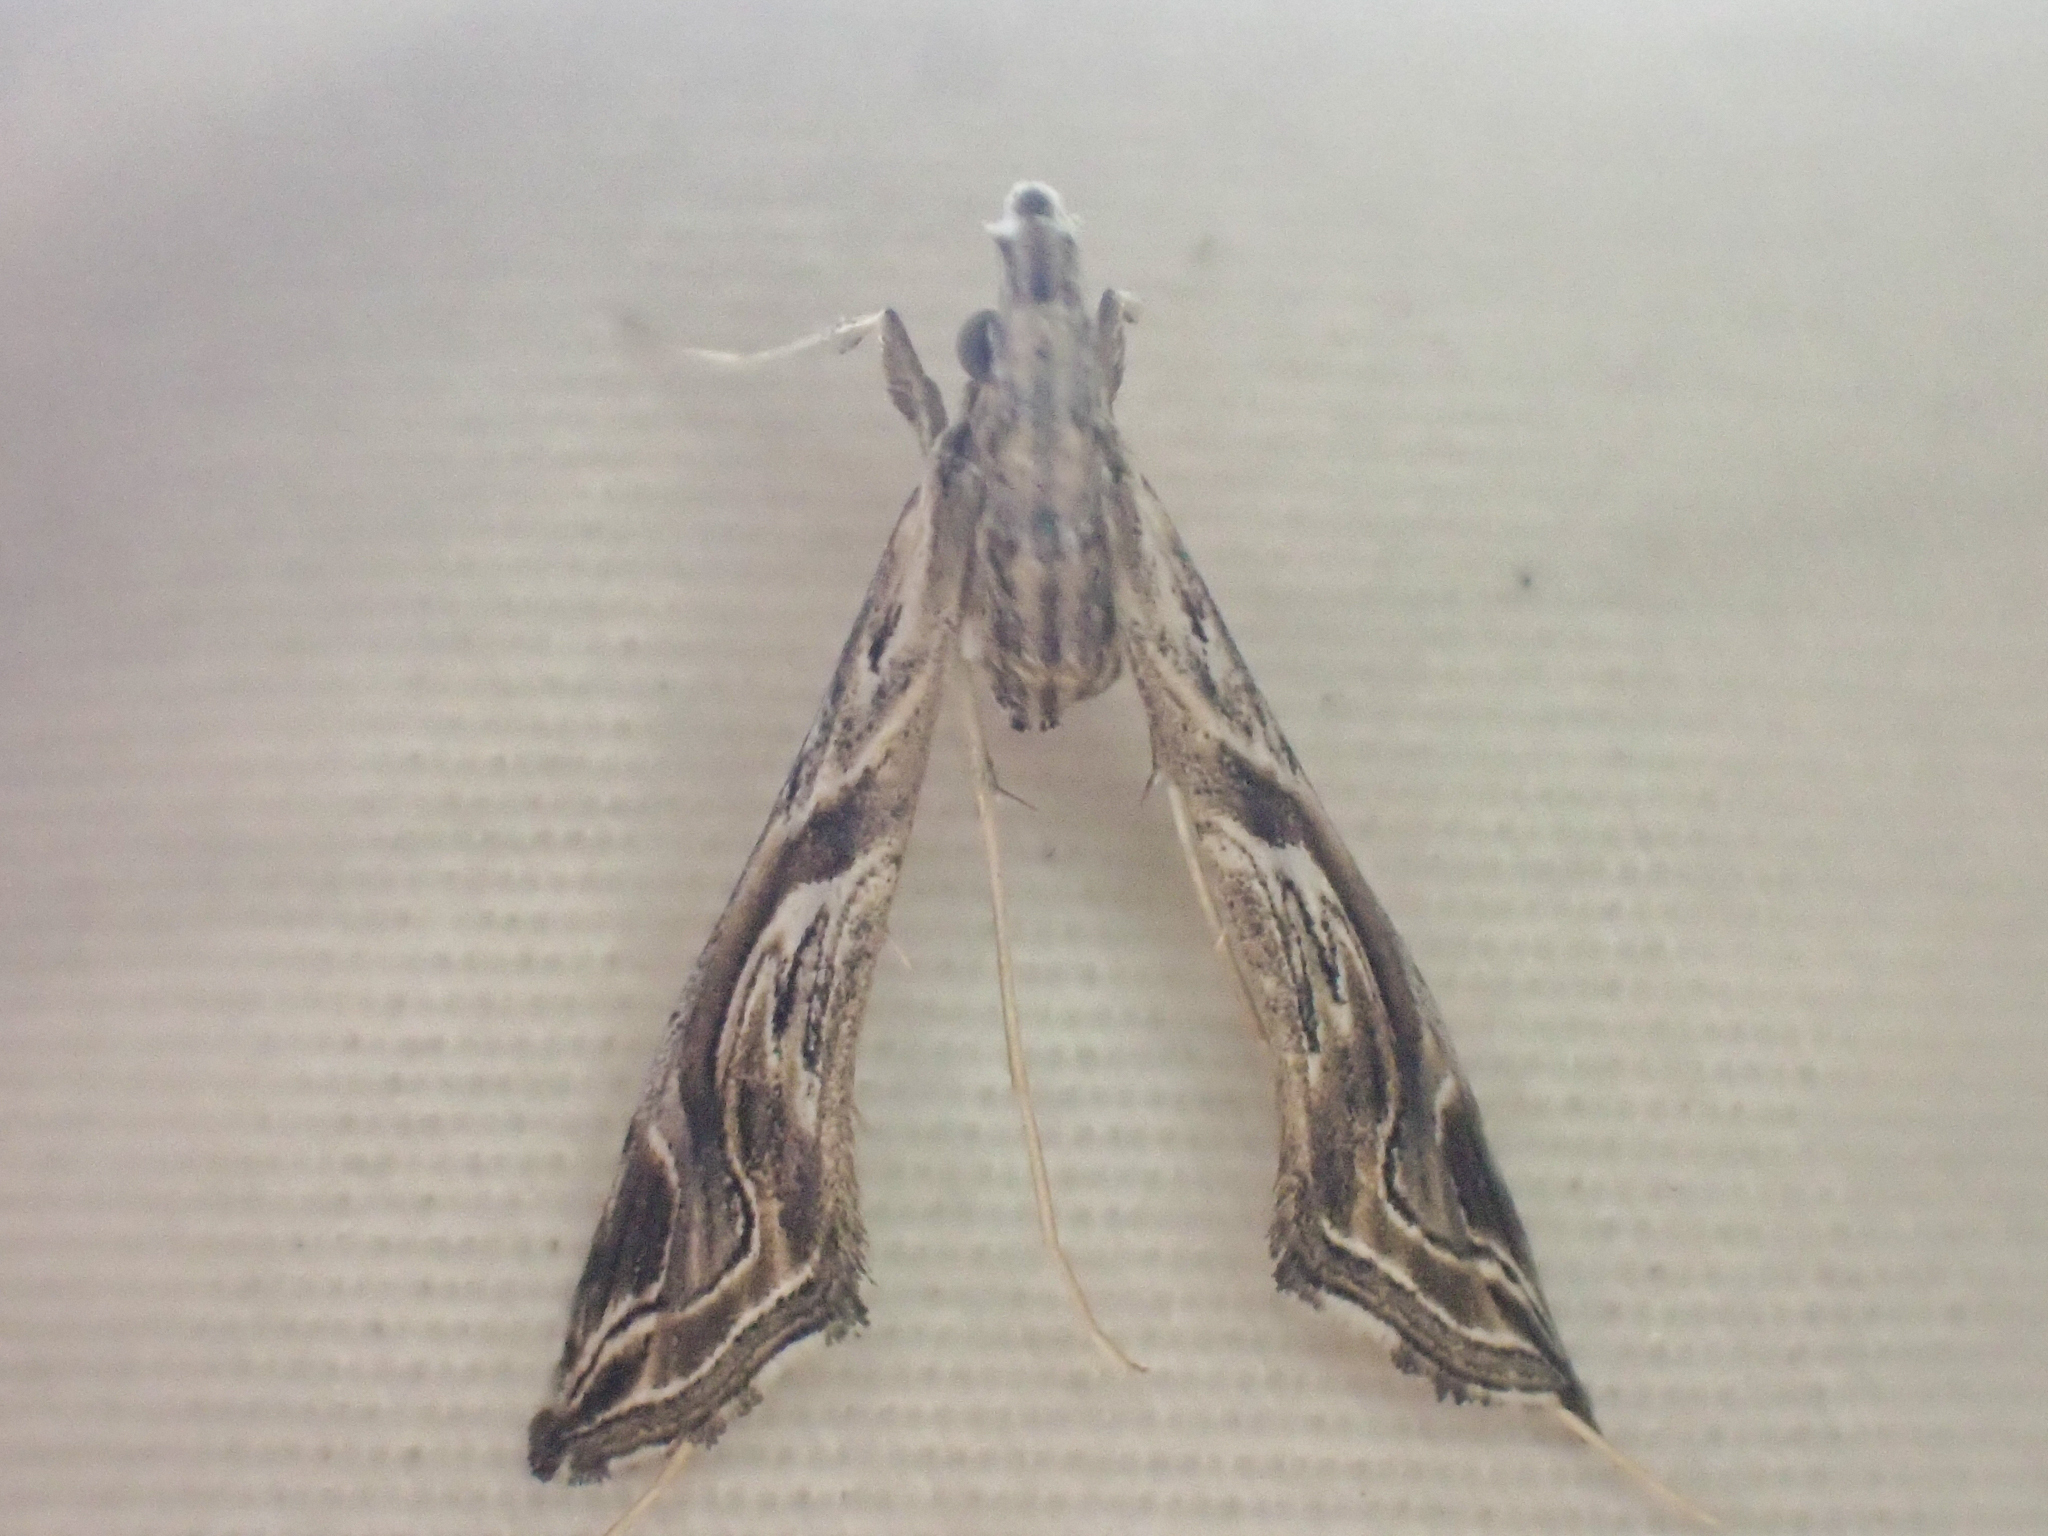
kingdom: Animalia
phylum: Arthropoda
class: Insecta
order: Lepidoptera
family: Crambidae
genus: Lineodes
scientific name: Lineodes integra
